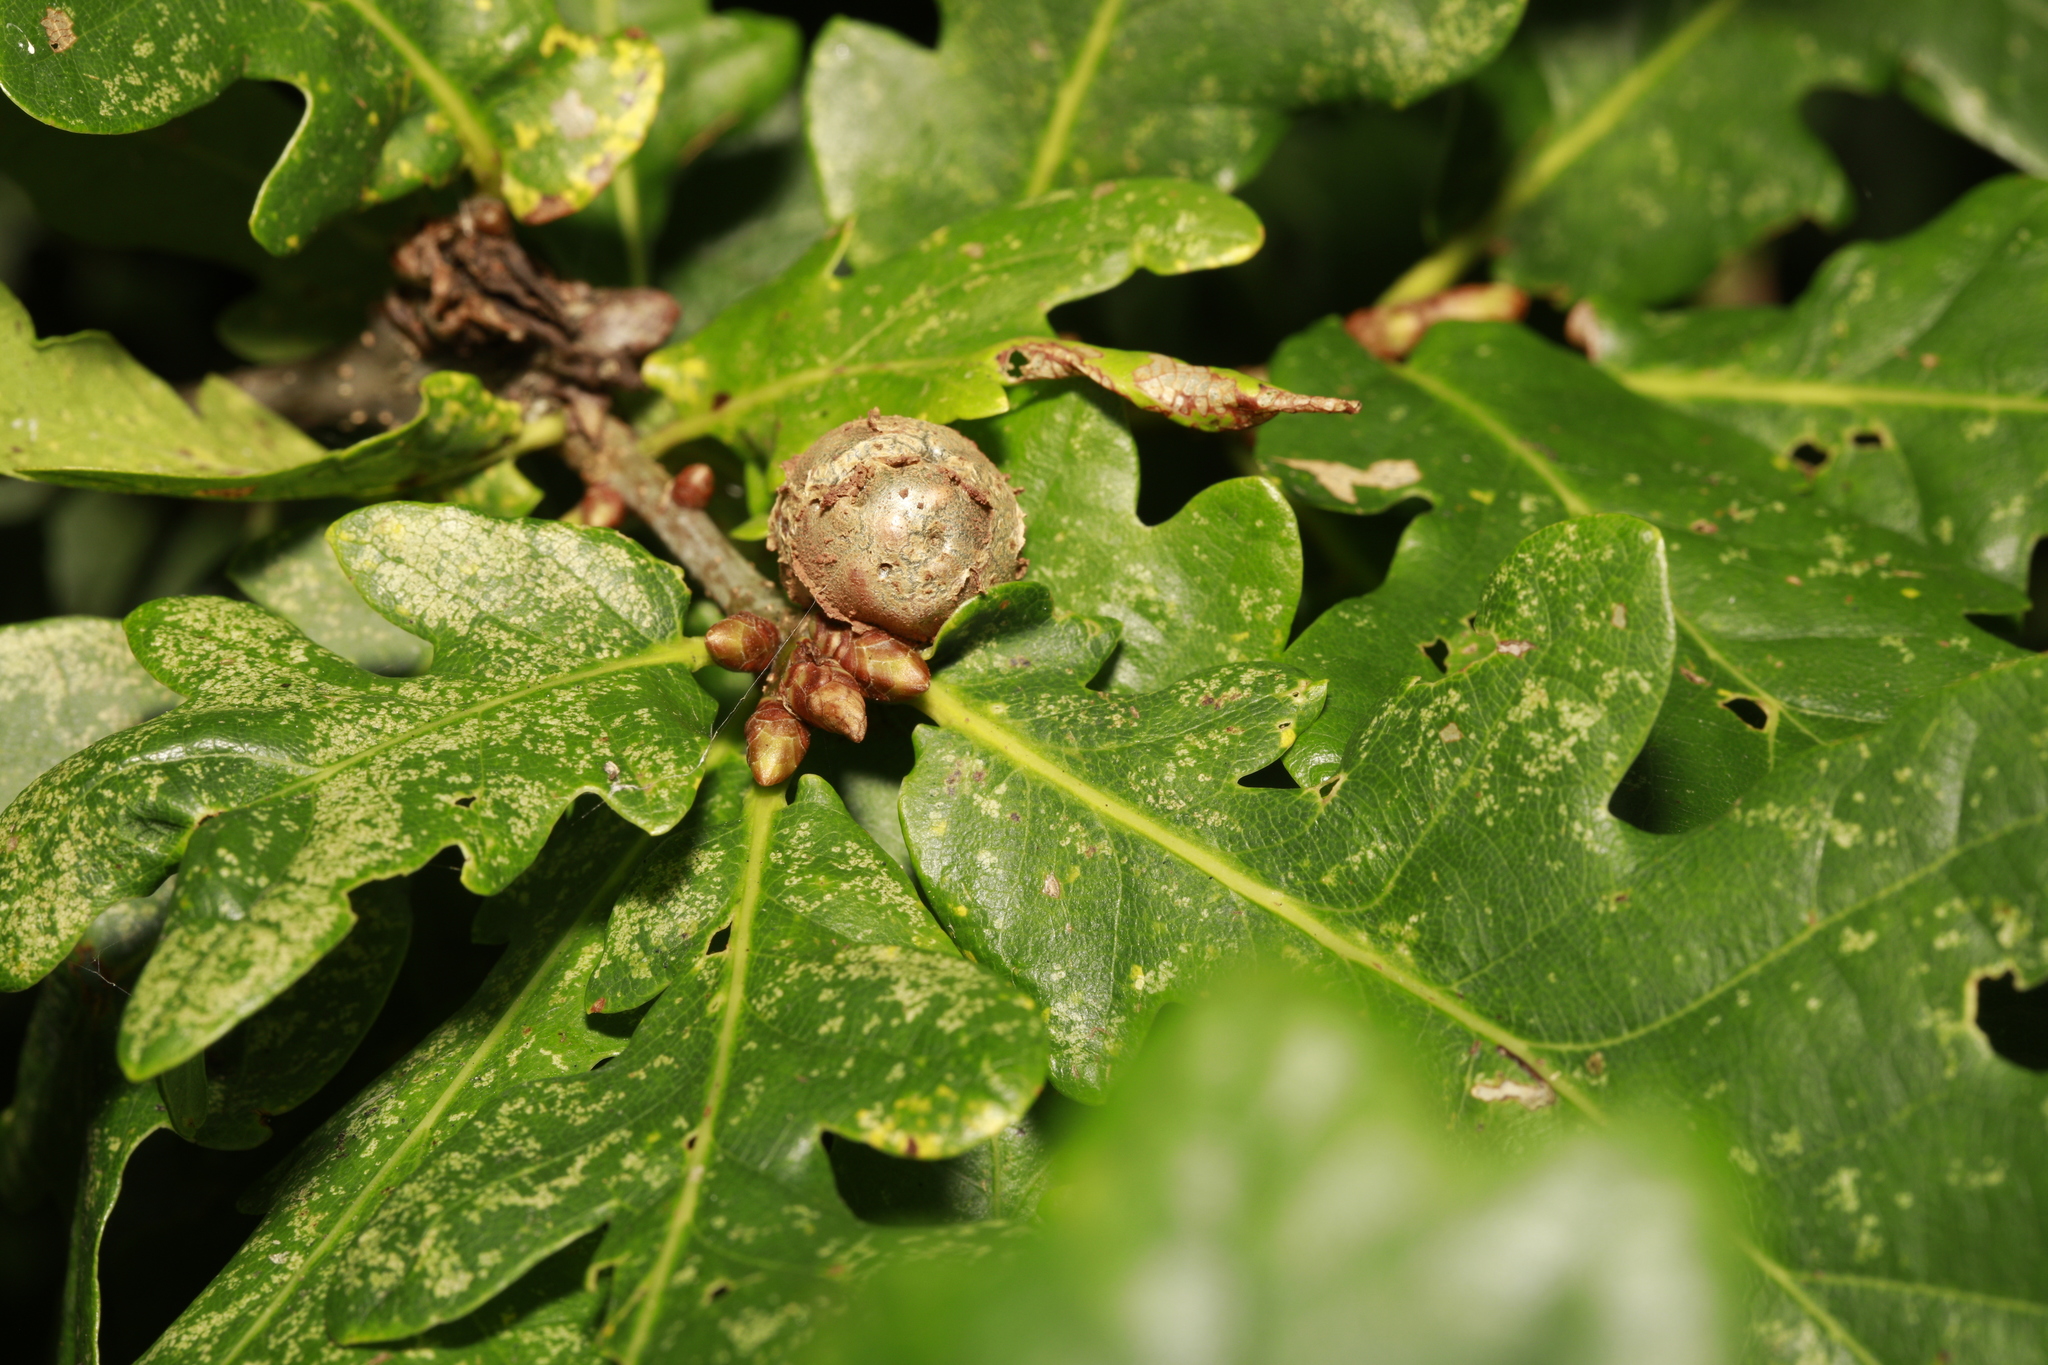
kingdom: Animalia
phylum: Arthropoda
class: Insecta
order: Hymenoptera
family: Cynipidae
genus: Andricus
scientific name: Andricus lignicolus
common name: Cola-nut gall
